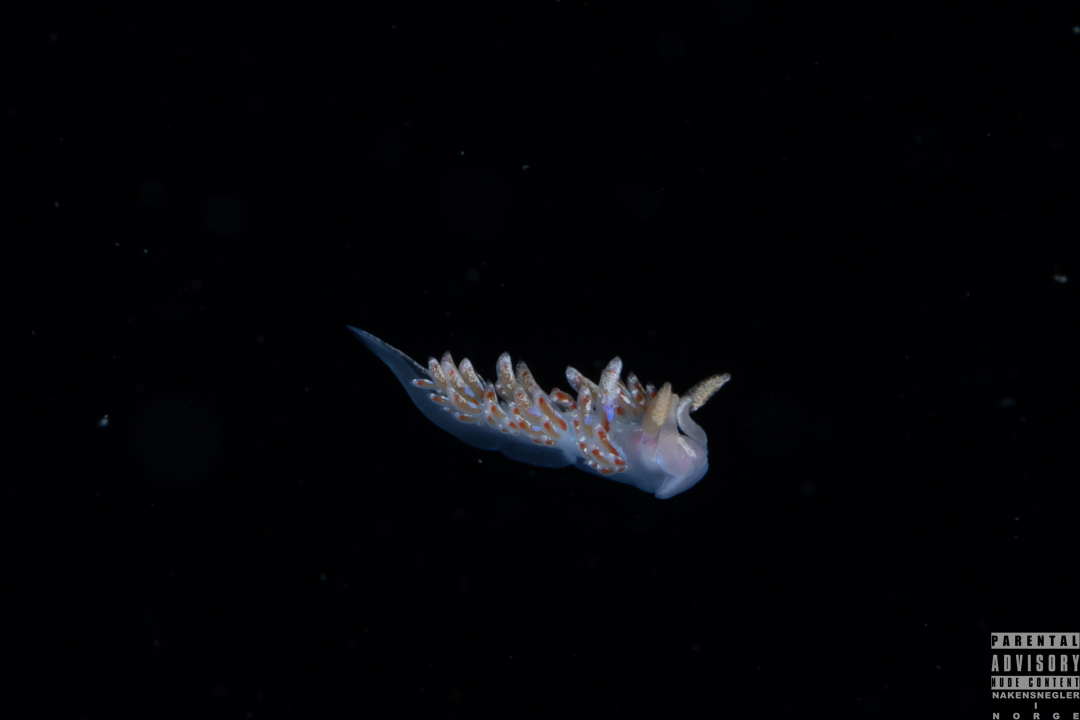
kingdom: Animalia
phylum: Mollusca
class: Gastropoda
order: Nudibranchia
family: Facelinidae
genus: Facelina
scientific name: Facelina auriculata
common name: Slender facelina
